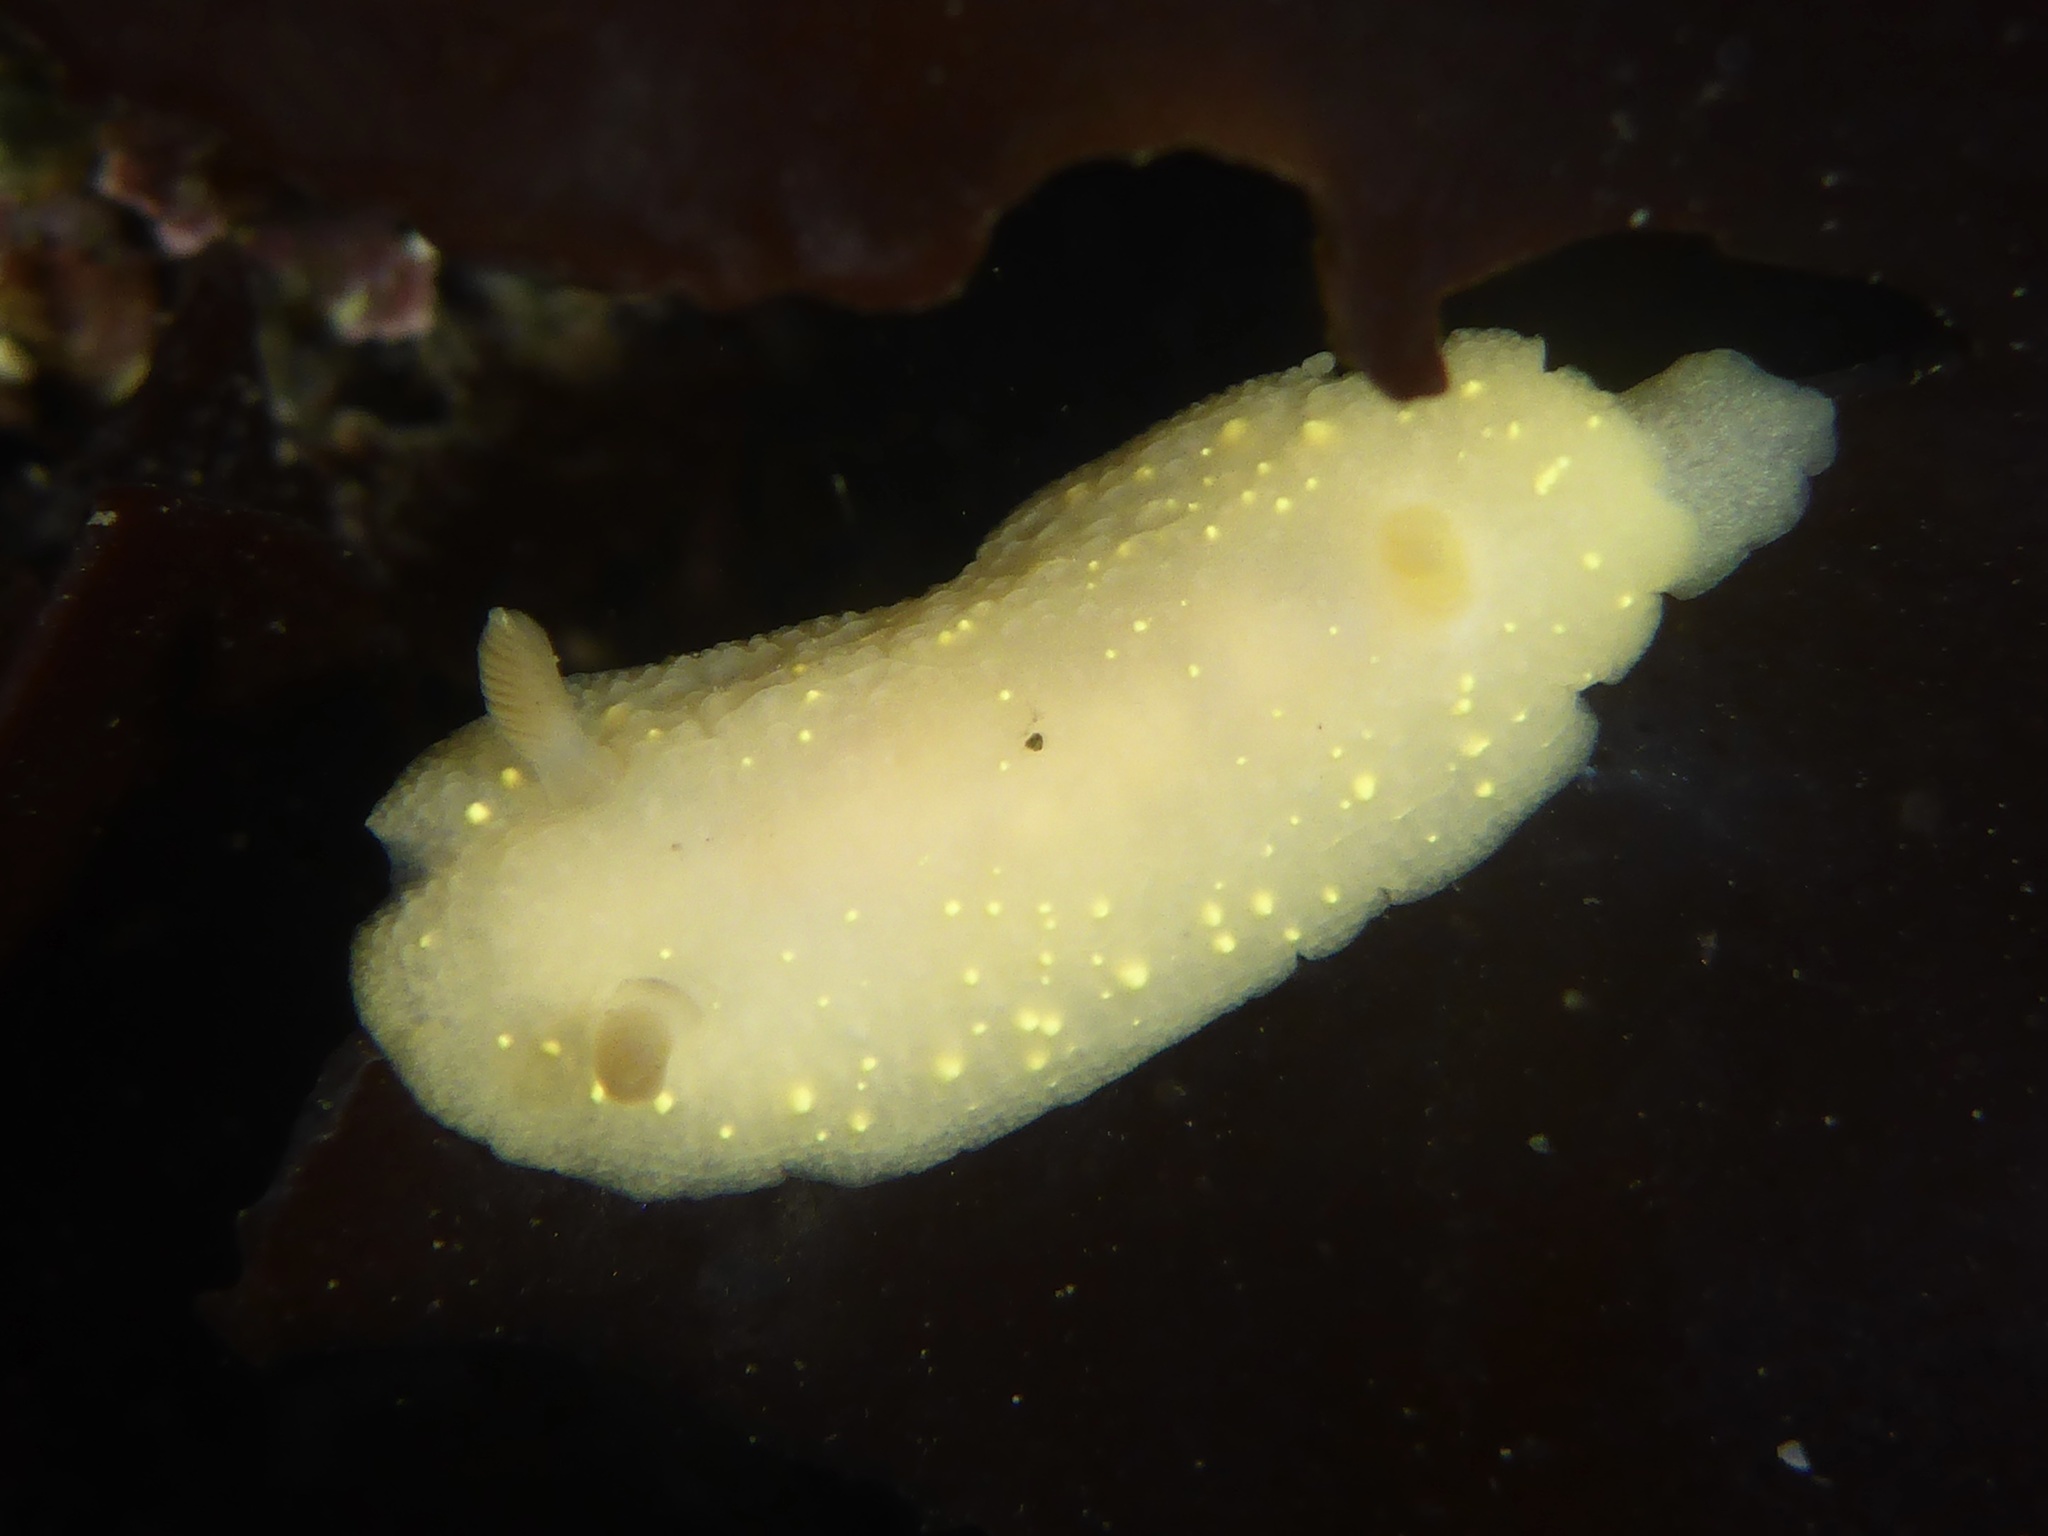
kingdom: Animalia
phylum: Mollusca
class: Gastropoda
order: Nudibranchia
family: Cadlinidae
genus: Cadlina
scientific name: Cadlina modesta
